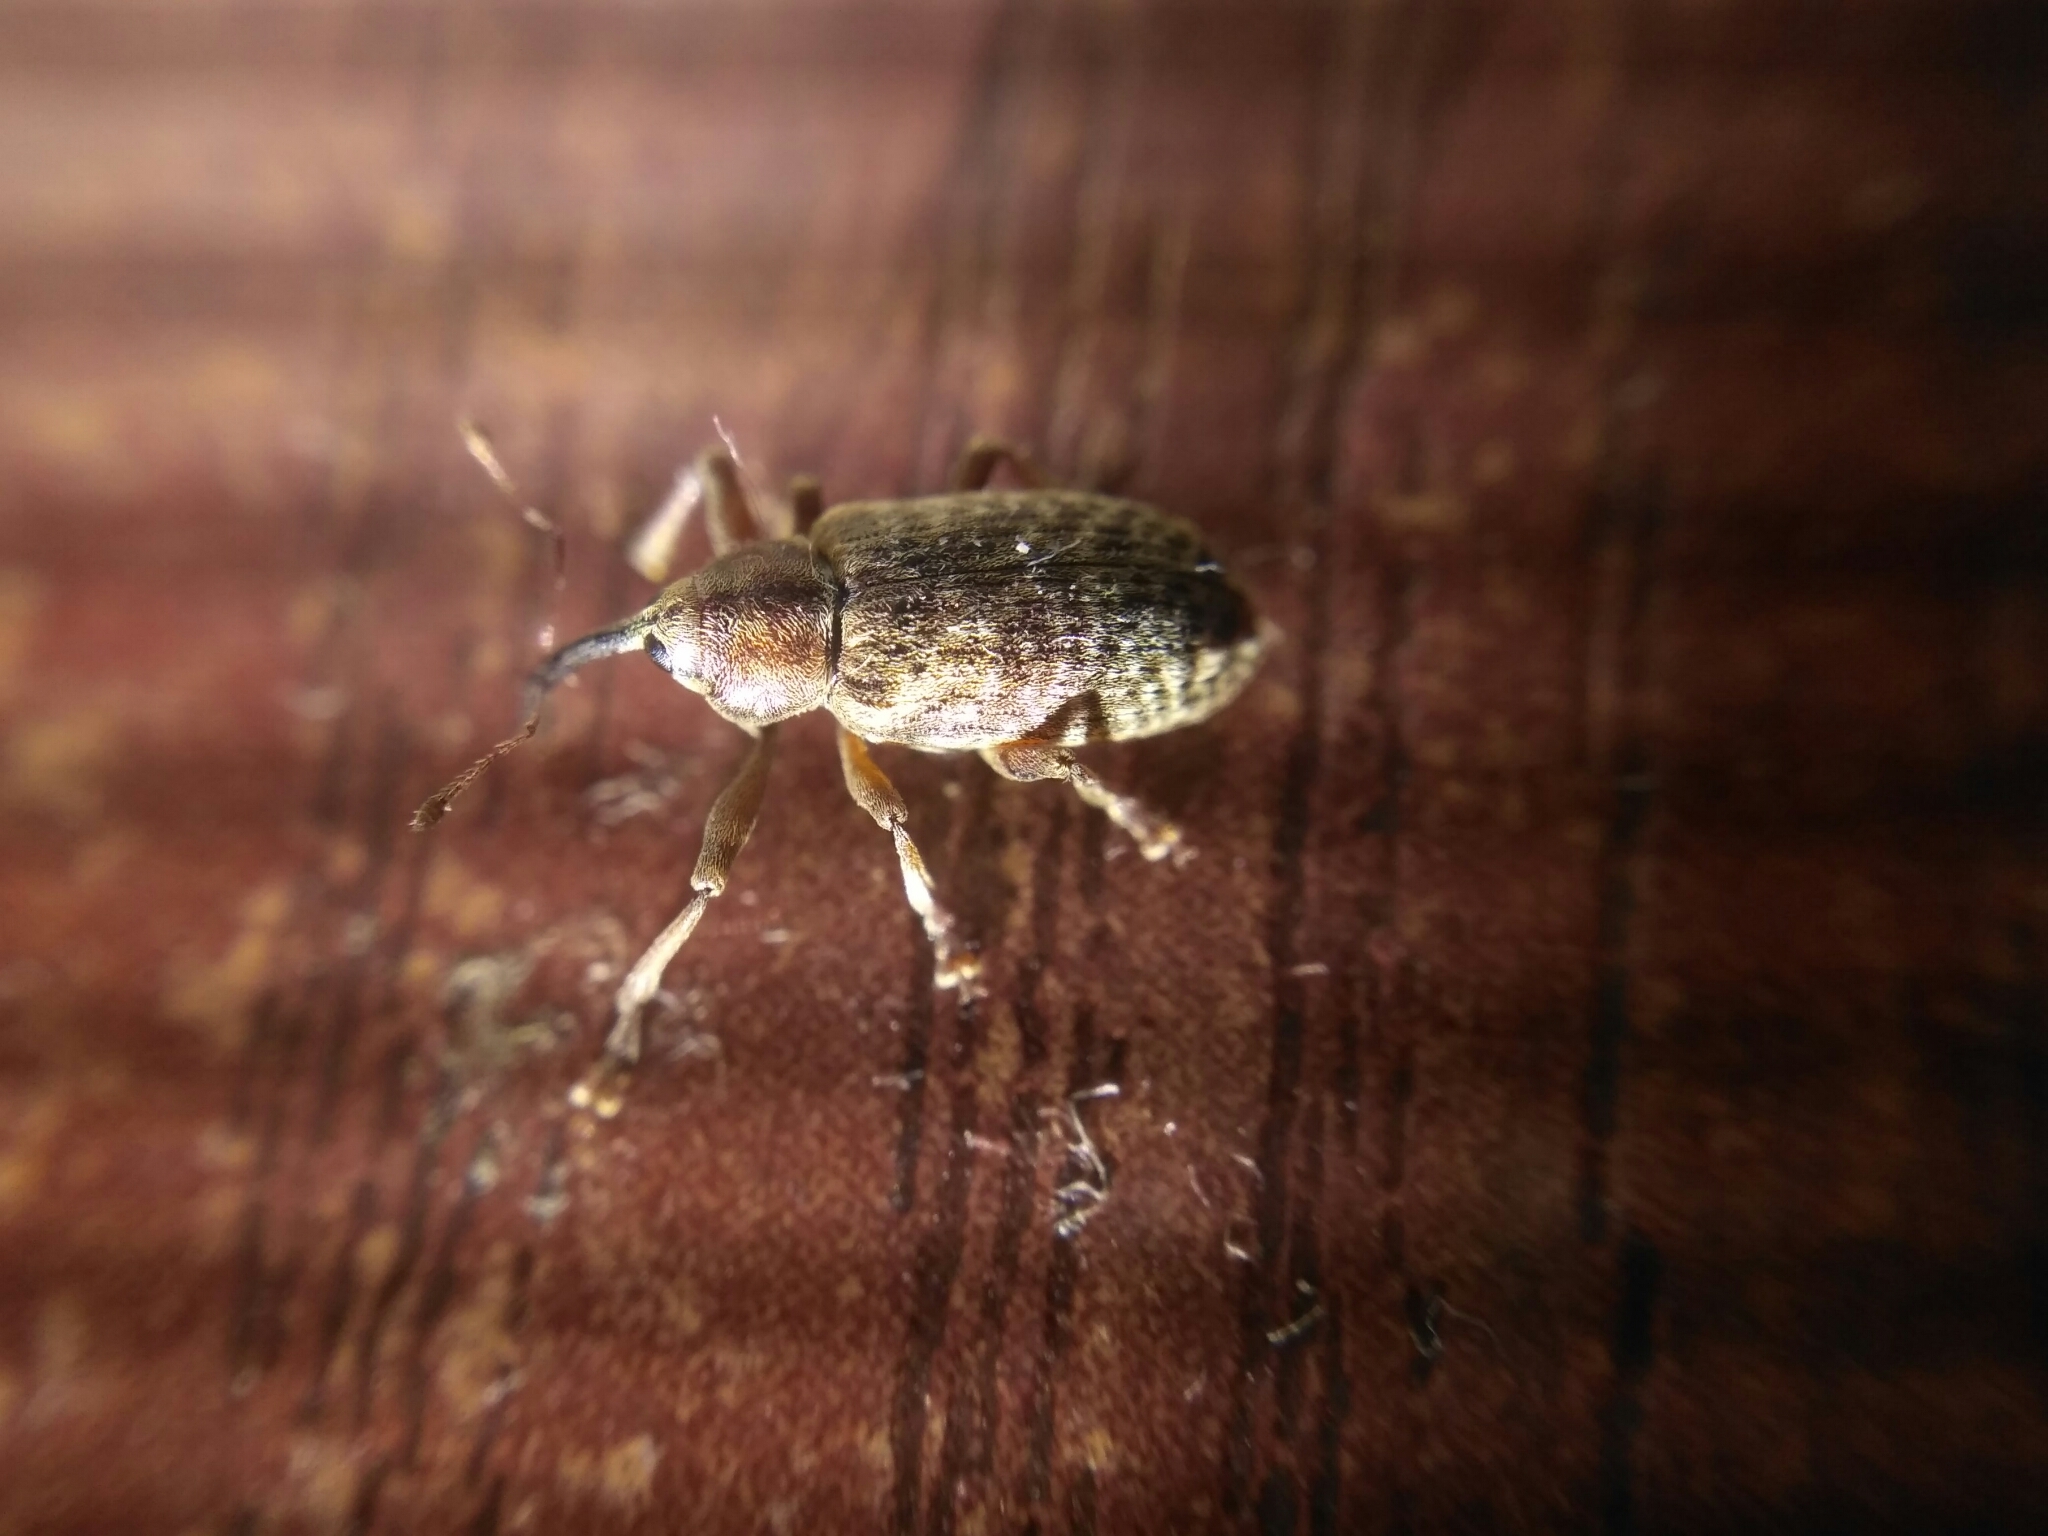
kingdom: Animalia
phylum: Arthropoda
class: Insecta
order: Coleoptera
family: Curculionidae
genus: Dorytomus
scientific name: Dorytomus longimanus
